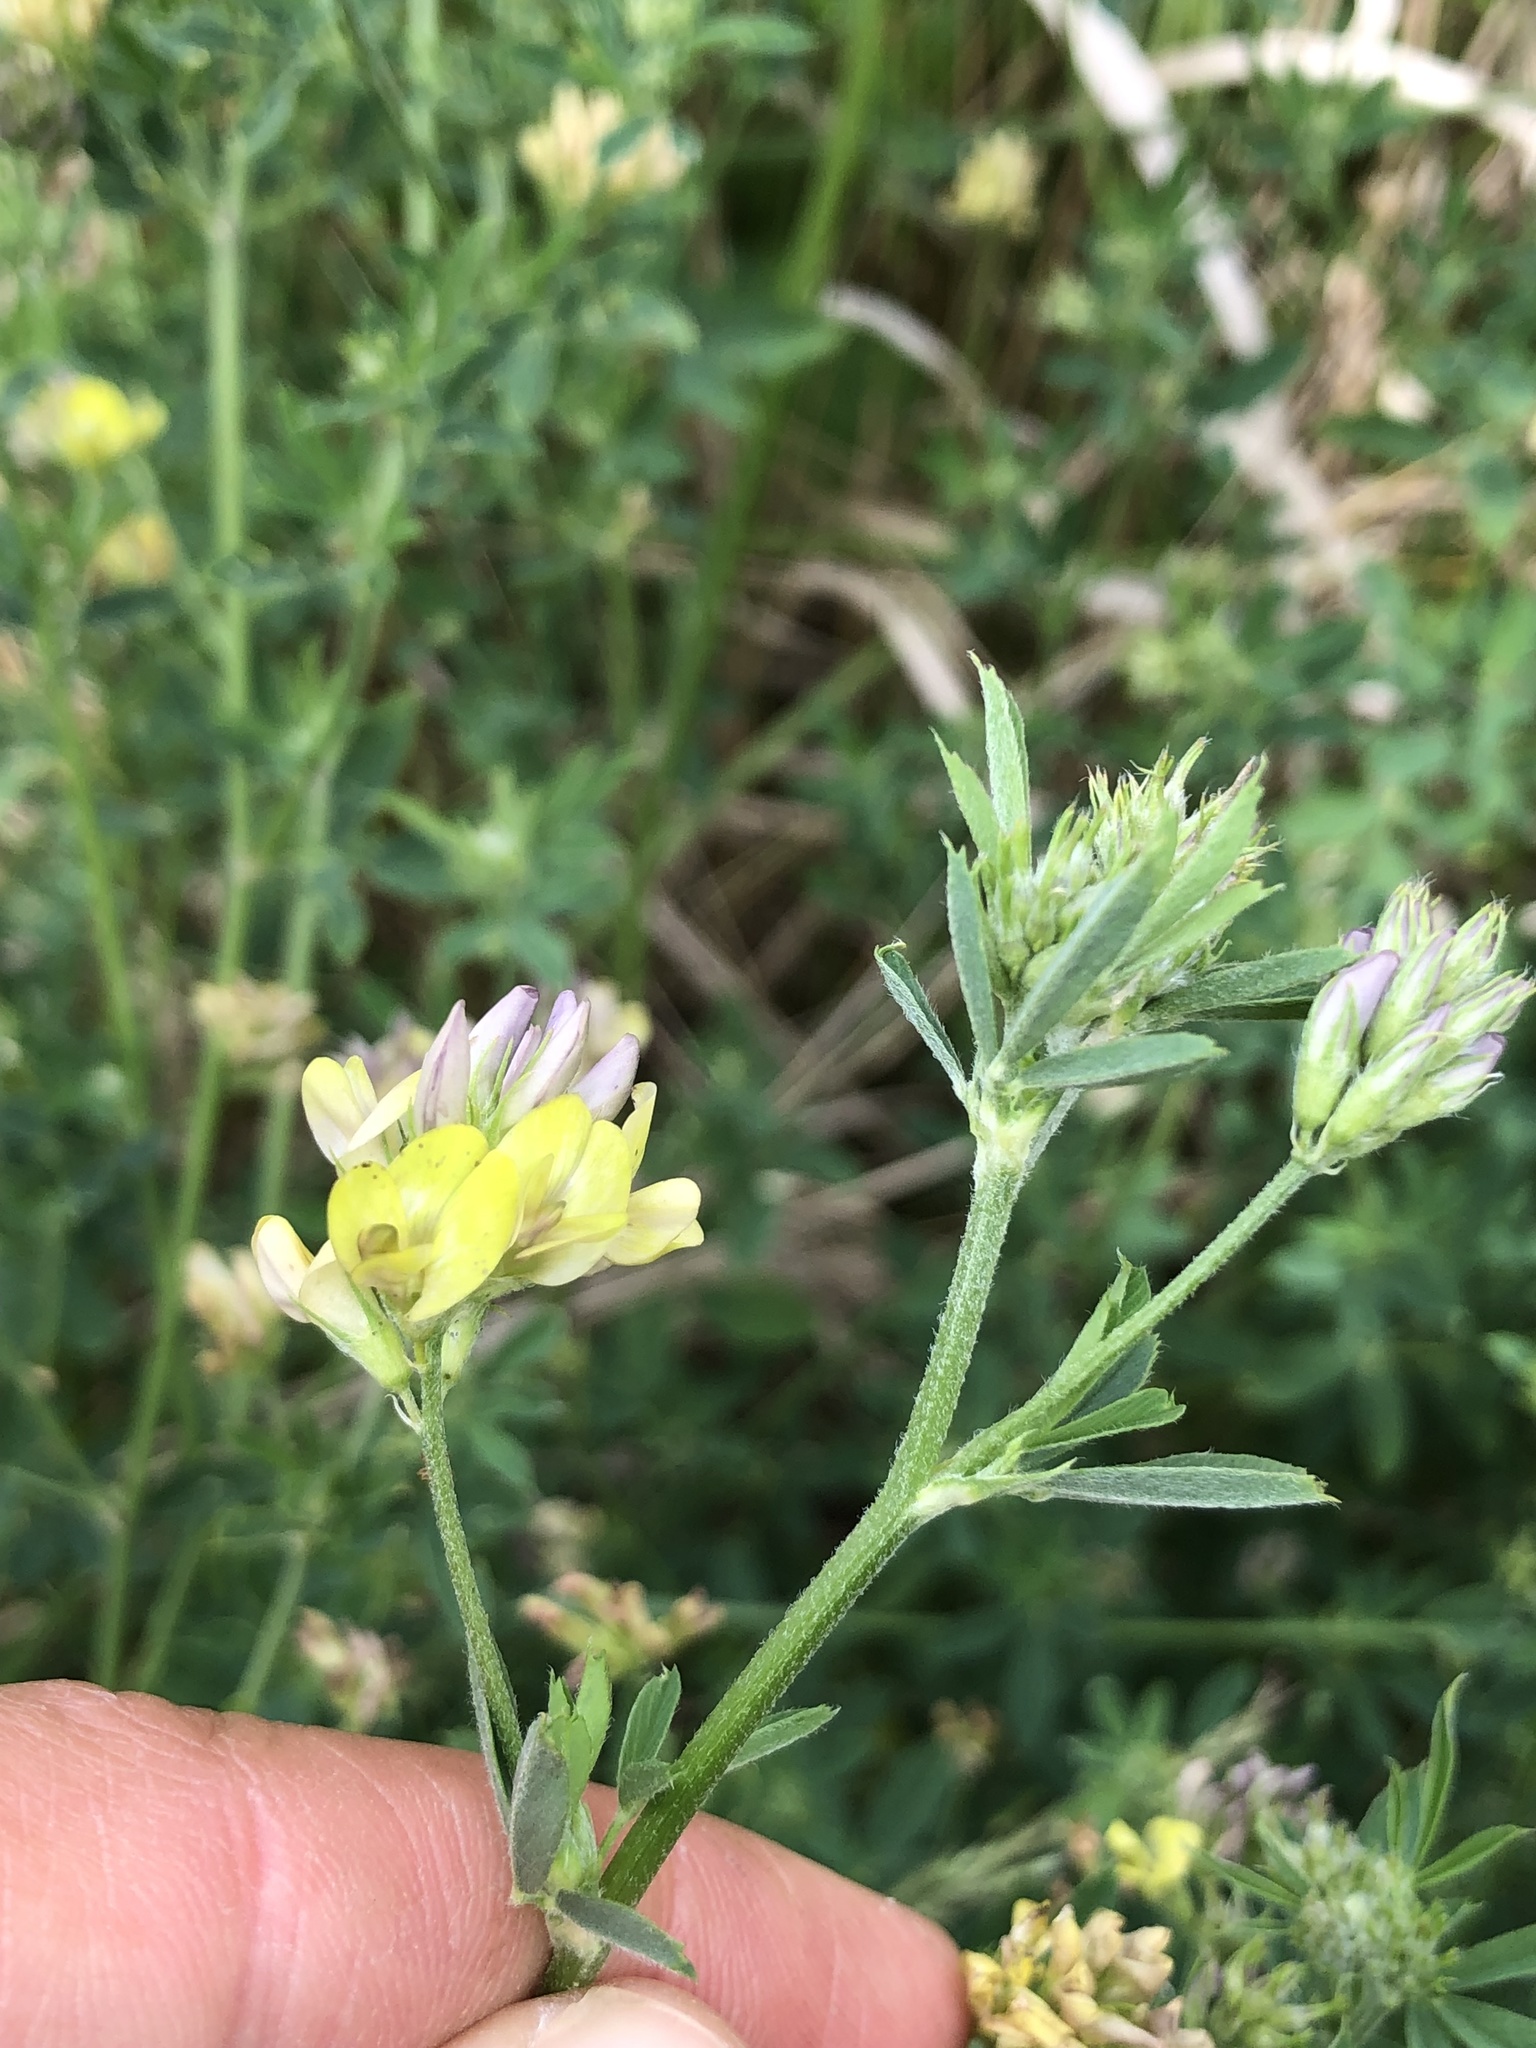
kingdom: Plantae
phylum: Tracheophyta
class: Magnoliopsida
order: Fabales
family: Fabaceae
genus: Medicago
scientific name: Medicago varia
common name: Sand lucerne
